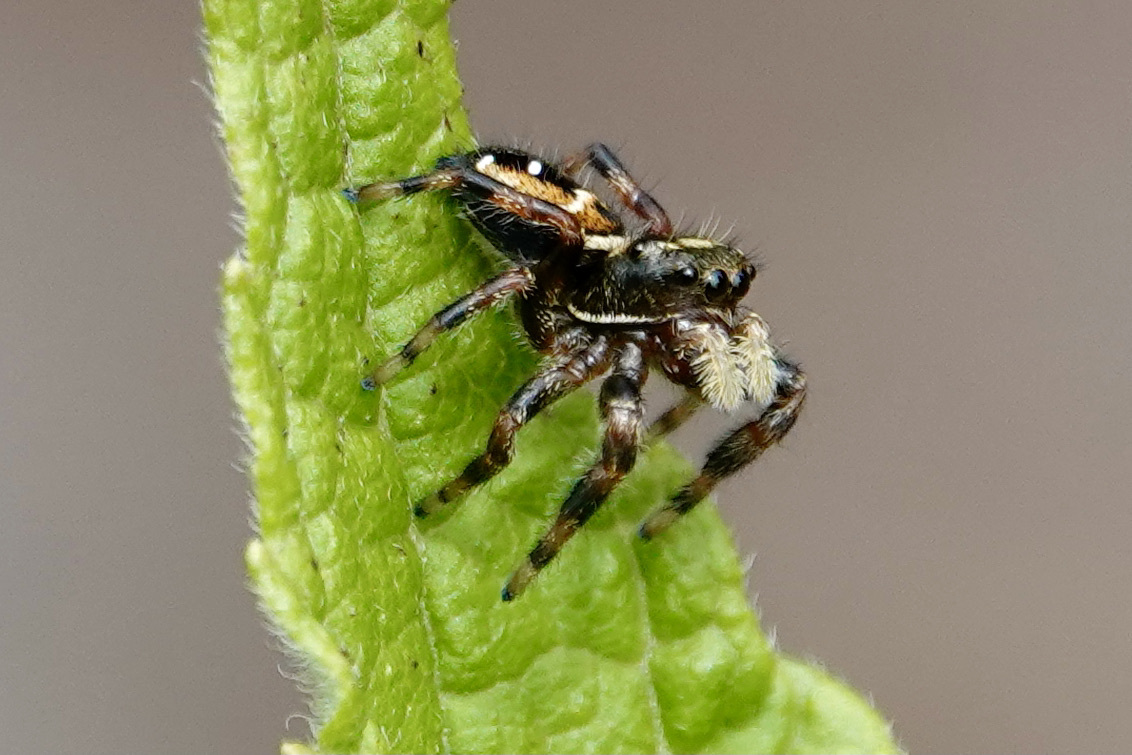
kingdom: Animalia
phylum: Arthropoda
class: Arachnida
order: Araneae
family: Salticidae
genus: Phidippus
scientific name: Phidippus clarus
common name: Brilliant jumping spider
